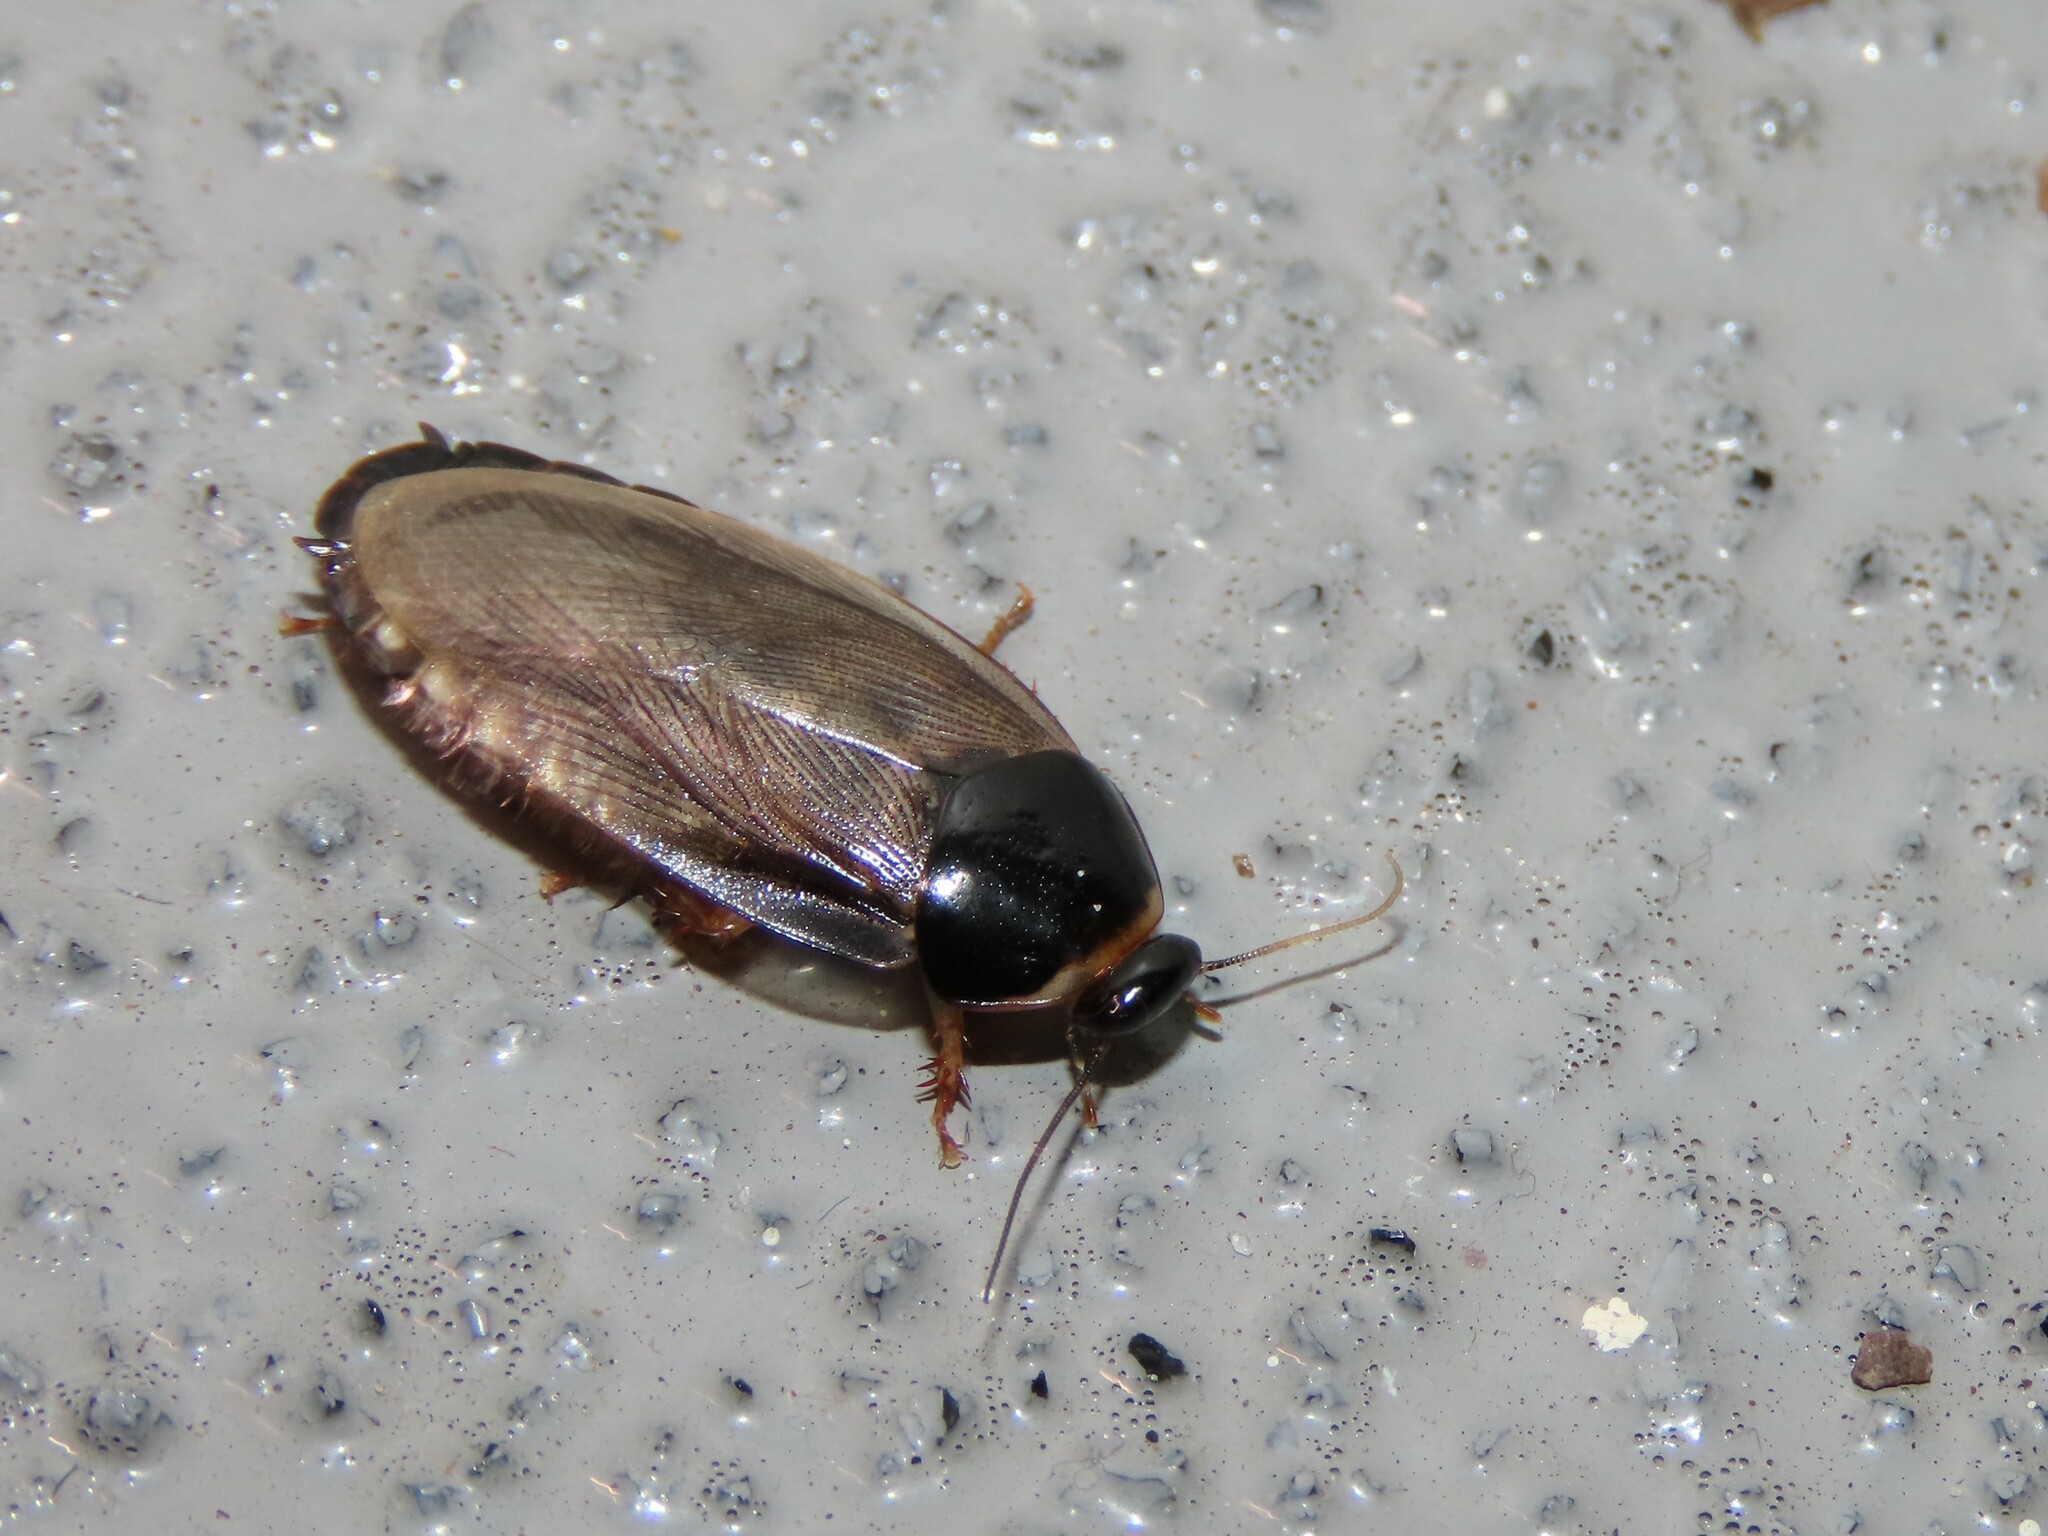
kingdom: Animalia
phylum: Arthropoda
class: Insecta
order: Blattodea
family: Blaberidae
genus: Pycnoscelus
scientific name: Pycnoscelus surinamensis
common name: Surinam cockroach
